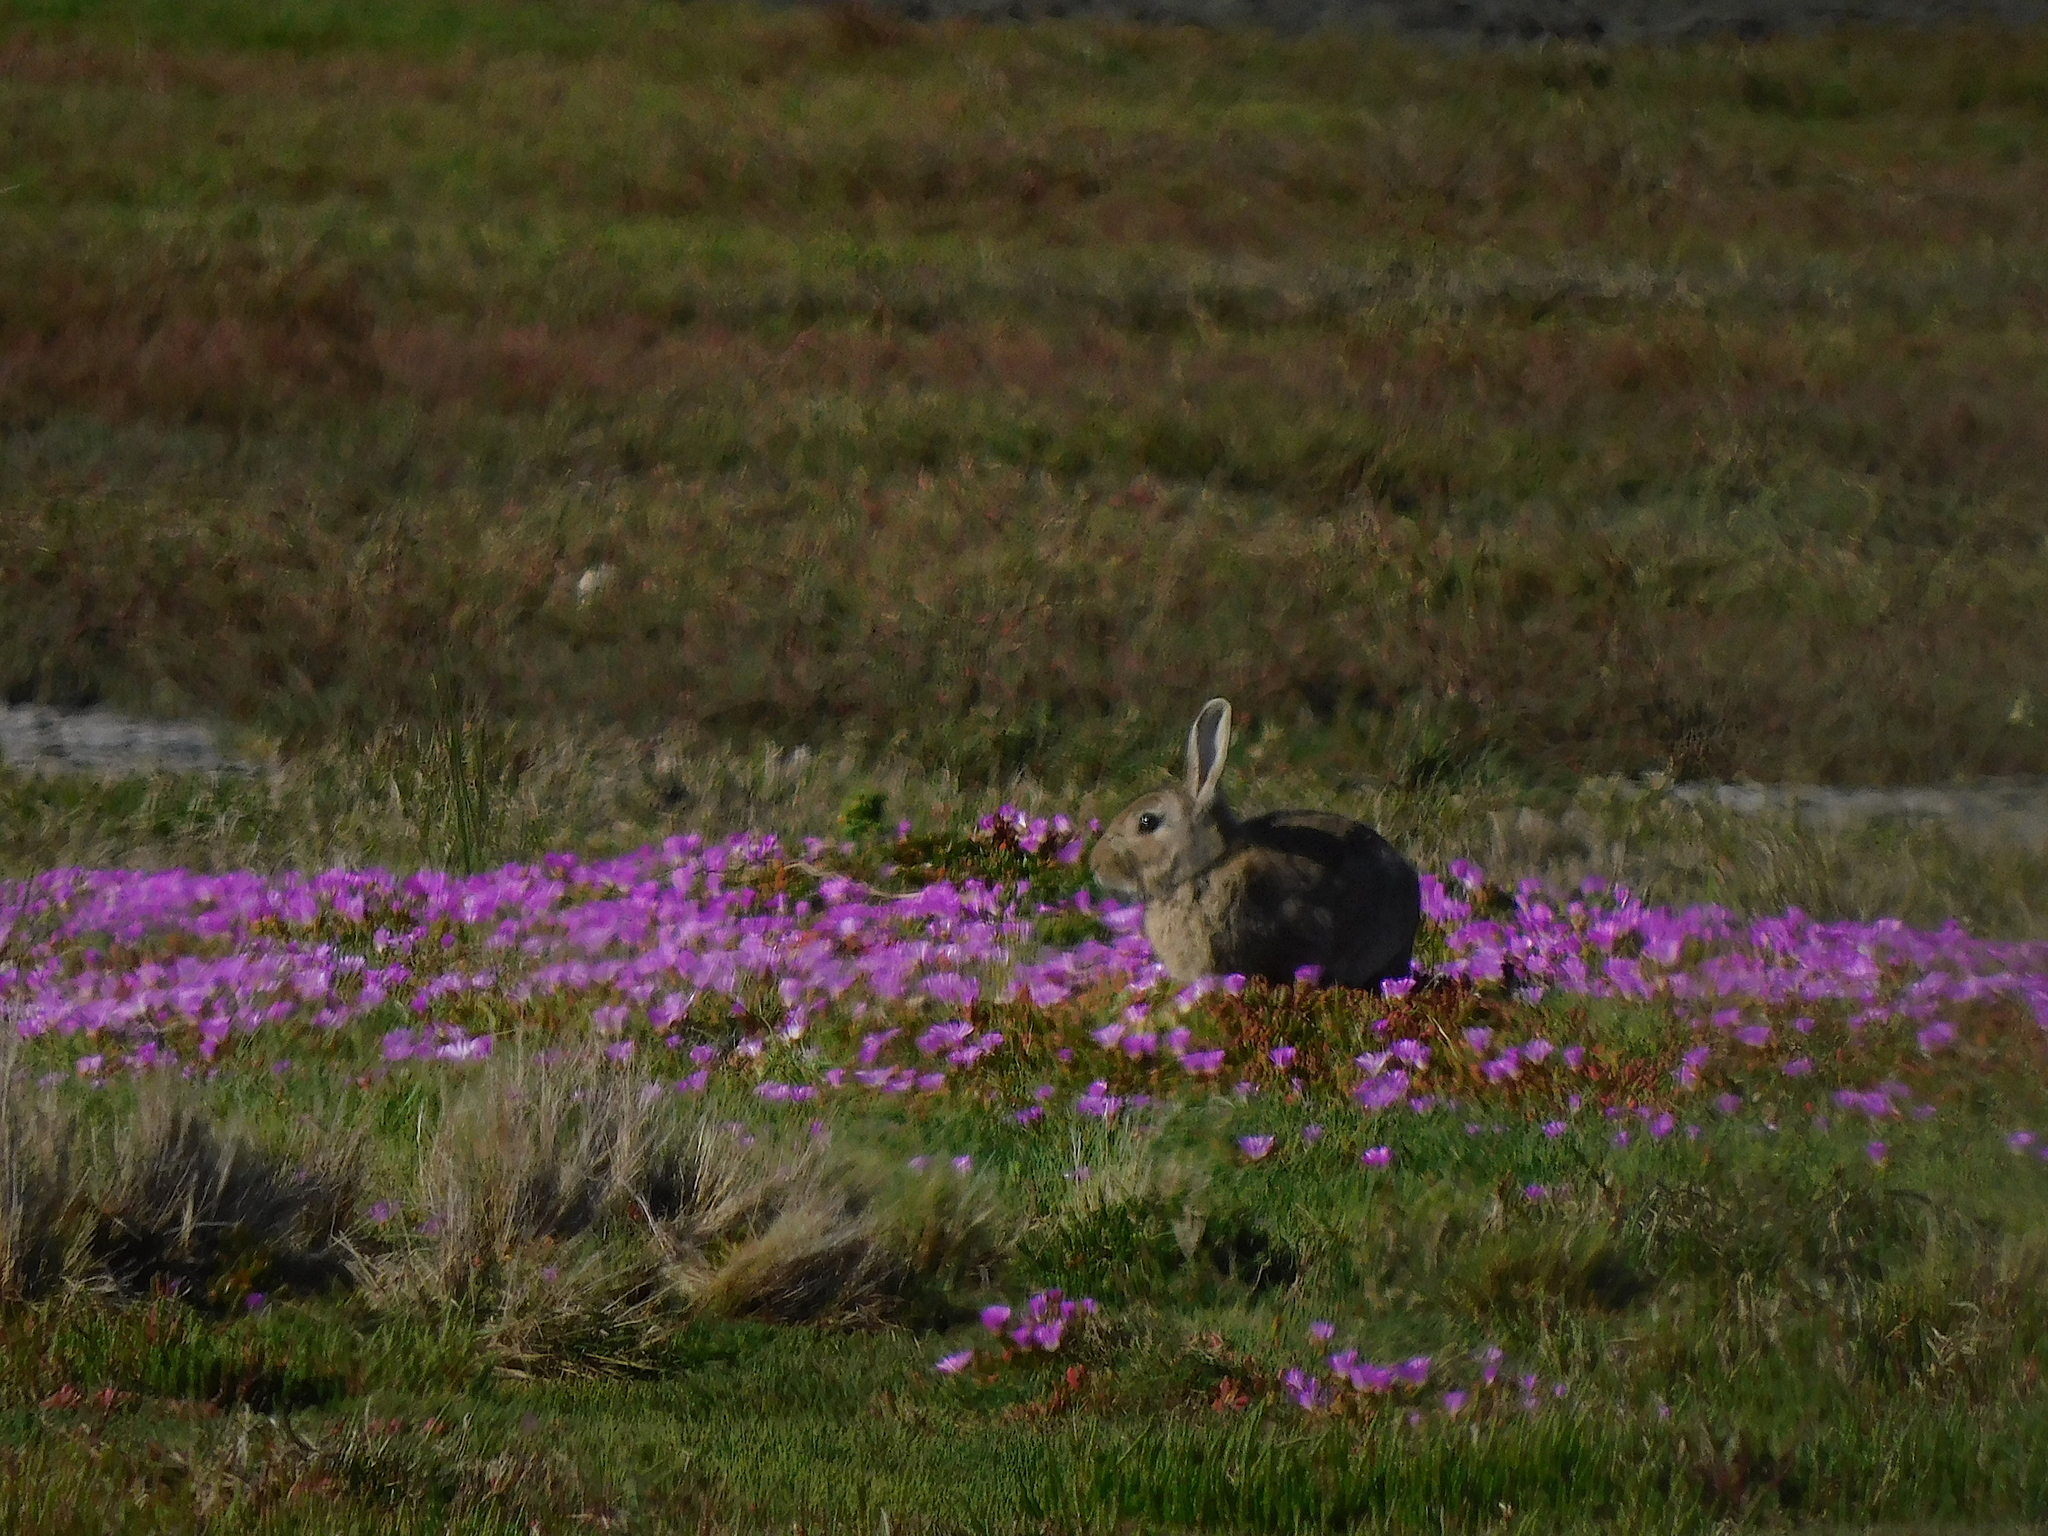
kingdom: Animalia
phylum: Chordata
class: Mammalia
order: Lagomorpha
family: Leporidae
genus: Oryctolagus
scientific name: Oryctolagus cuniculus
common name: European rabbit
